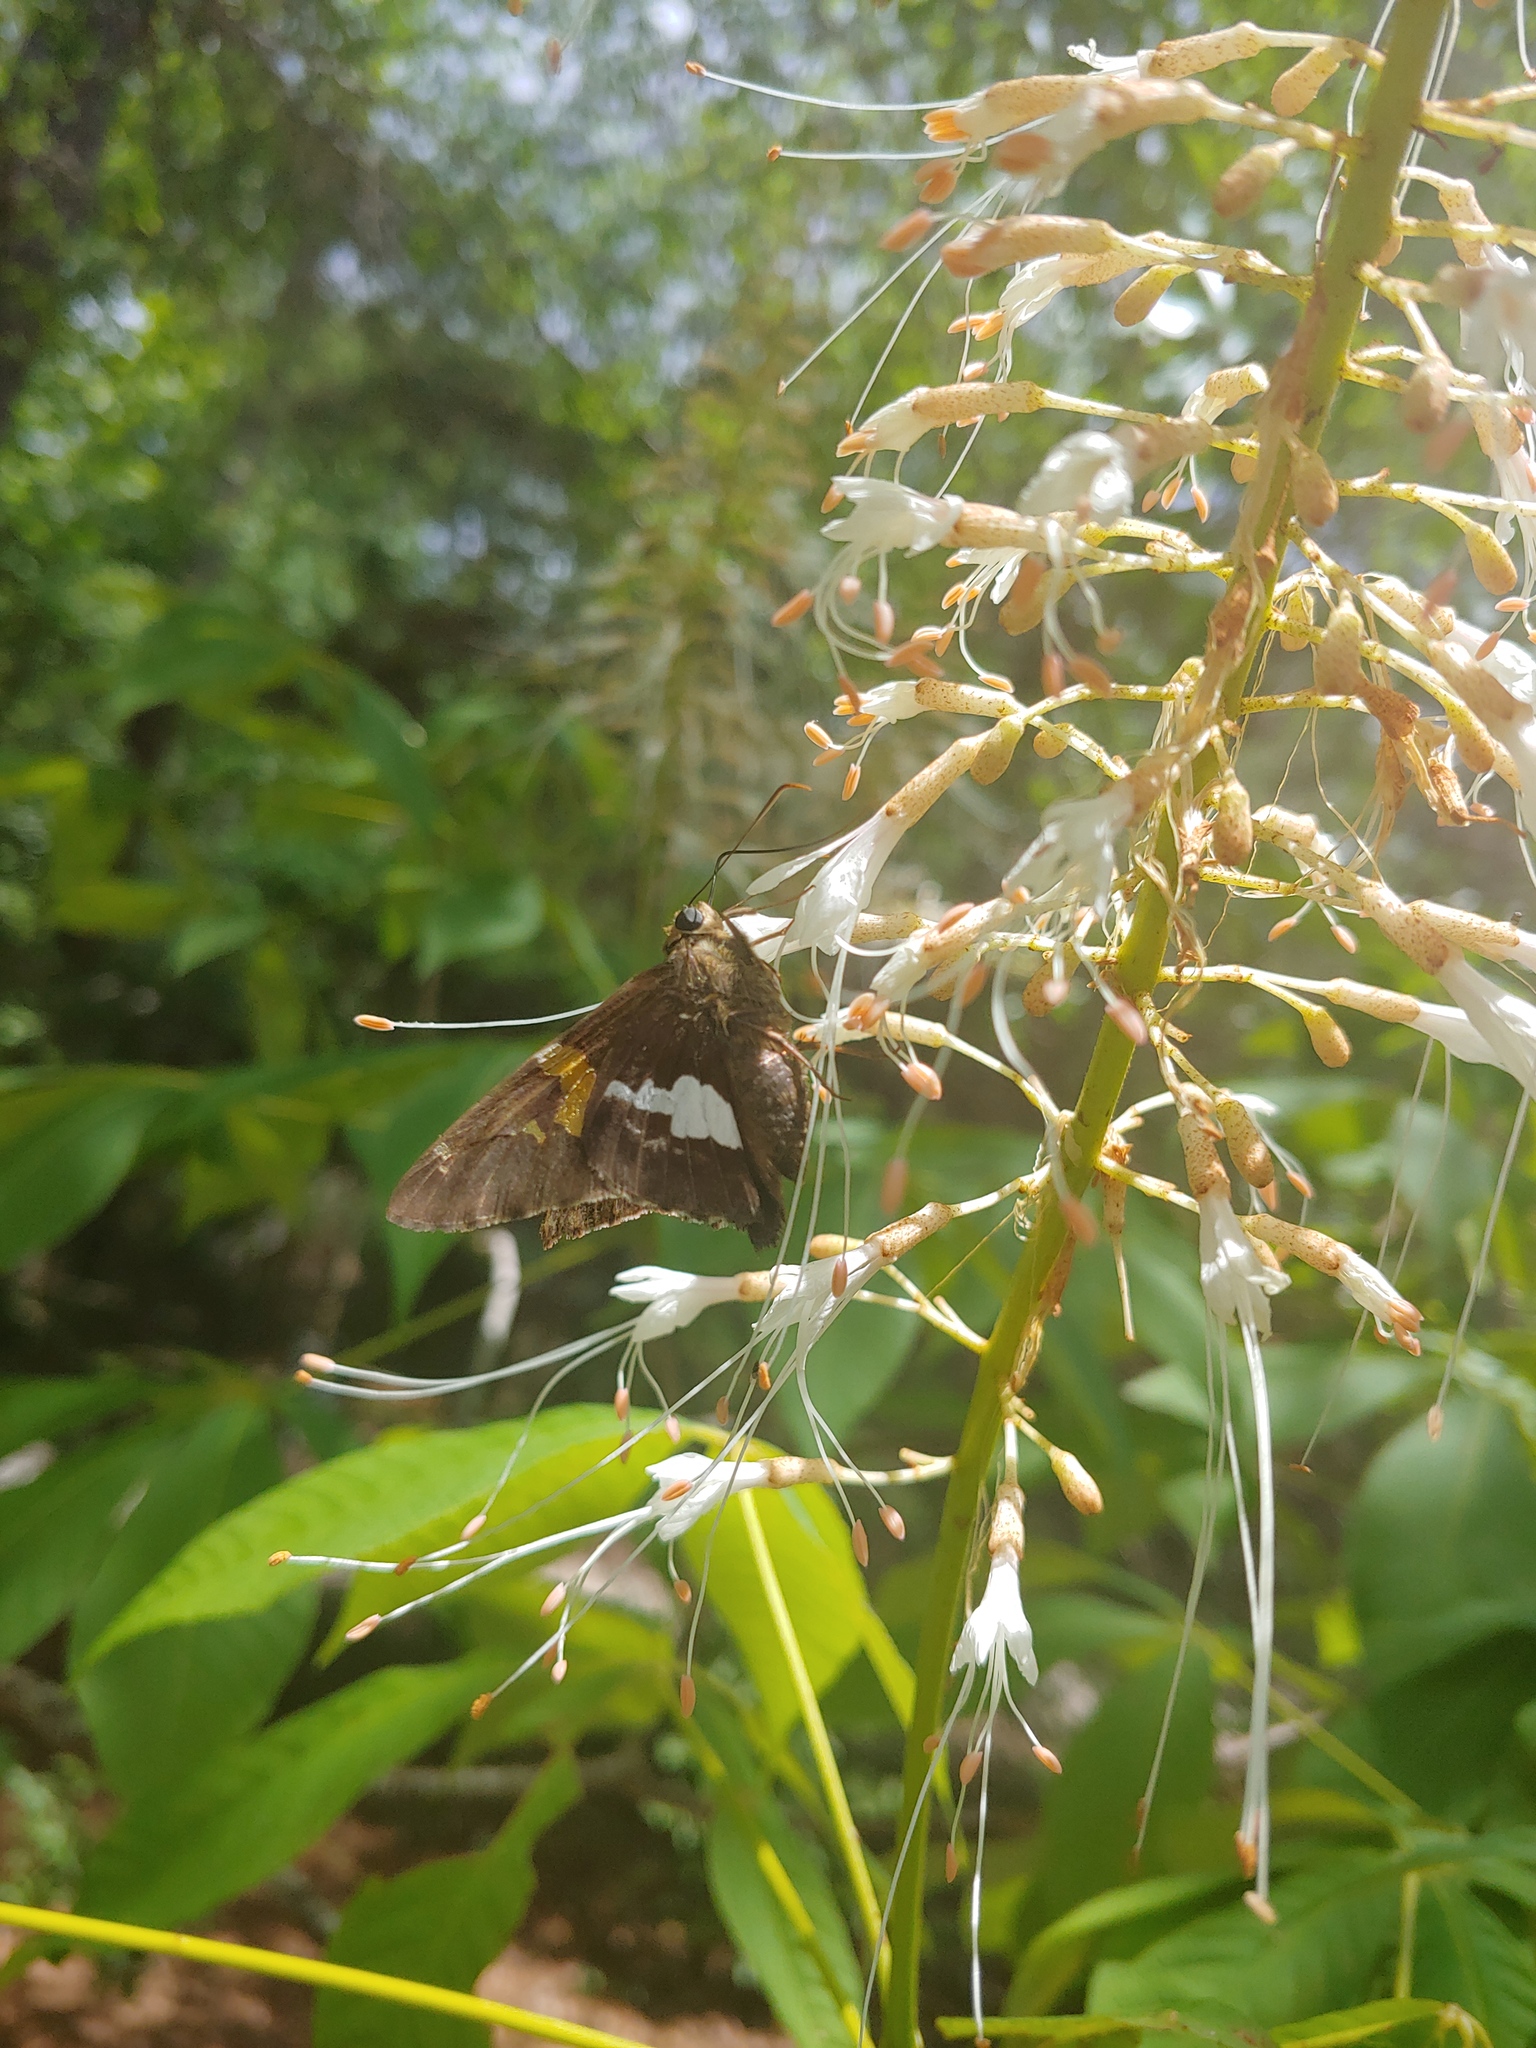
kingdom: Animalia
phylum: Arthropoda
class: Insecta
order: Lepidoptera
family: Hesperiidae
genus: Epargyreus
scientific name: Epargyreus clarus
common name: Silver-spotted skipper
